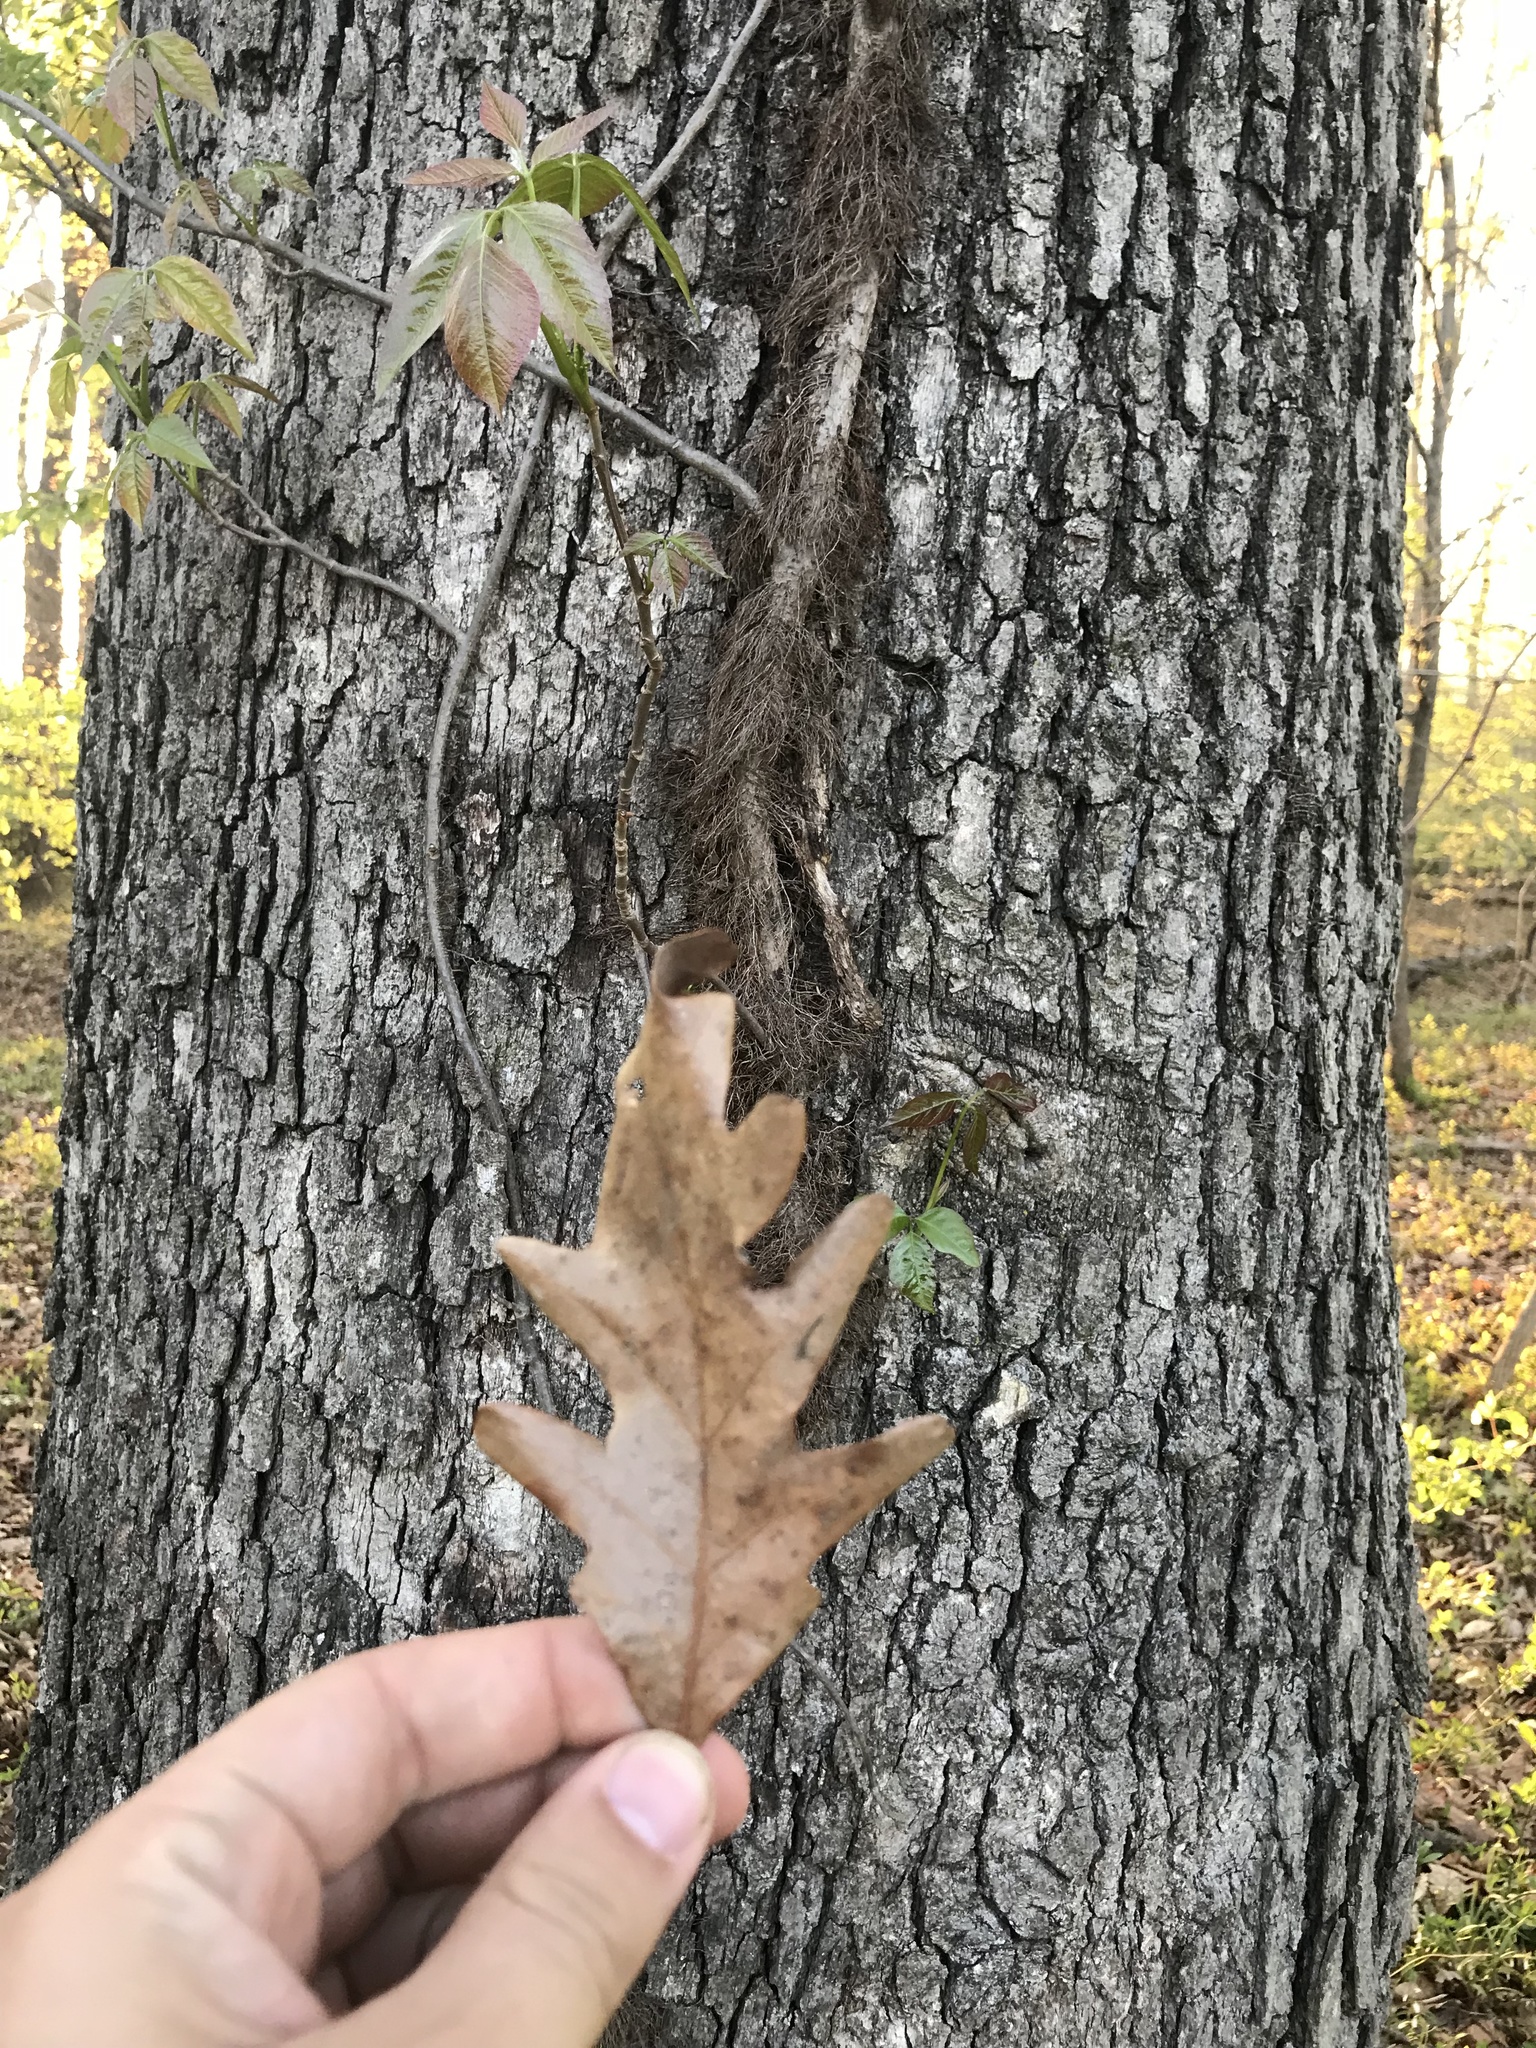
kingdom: Plantae
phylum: Tracheophyta
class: Magnoliopsida
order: Fagales
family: Fagaceae
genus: Quercus
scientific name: Quercus alba
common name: White oak
